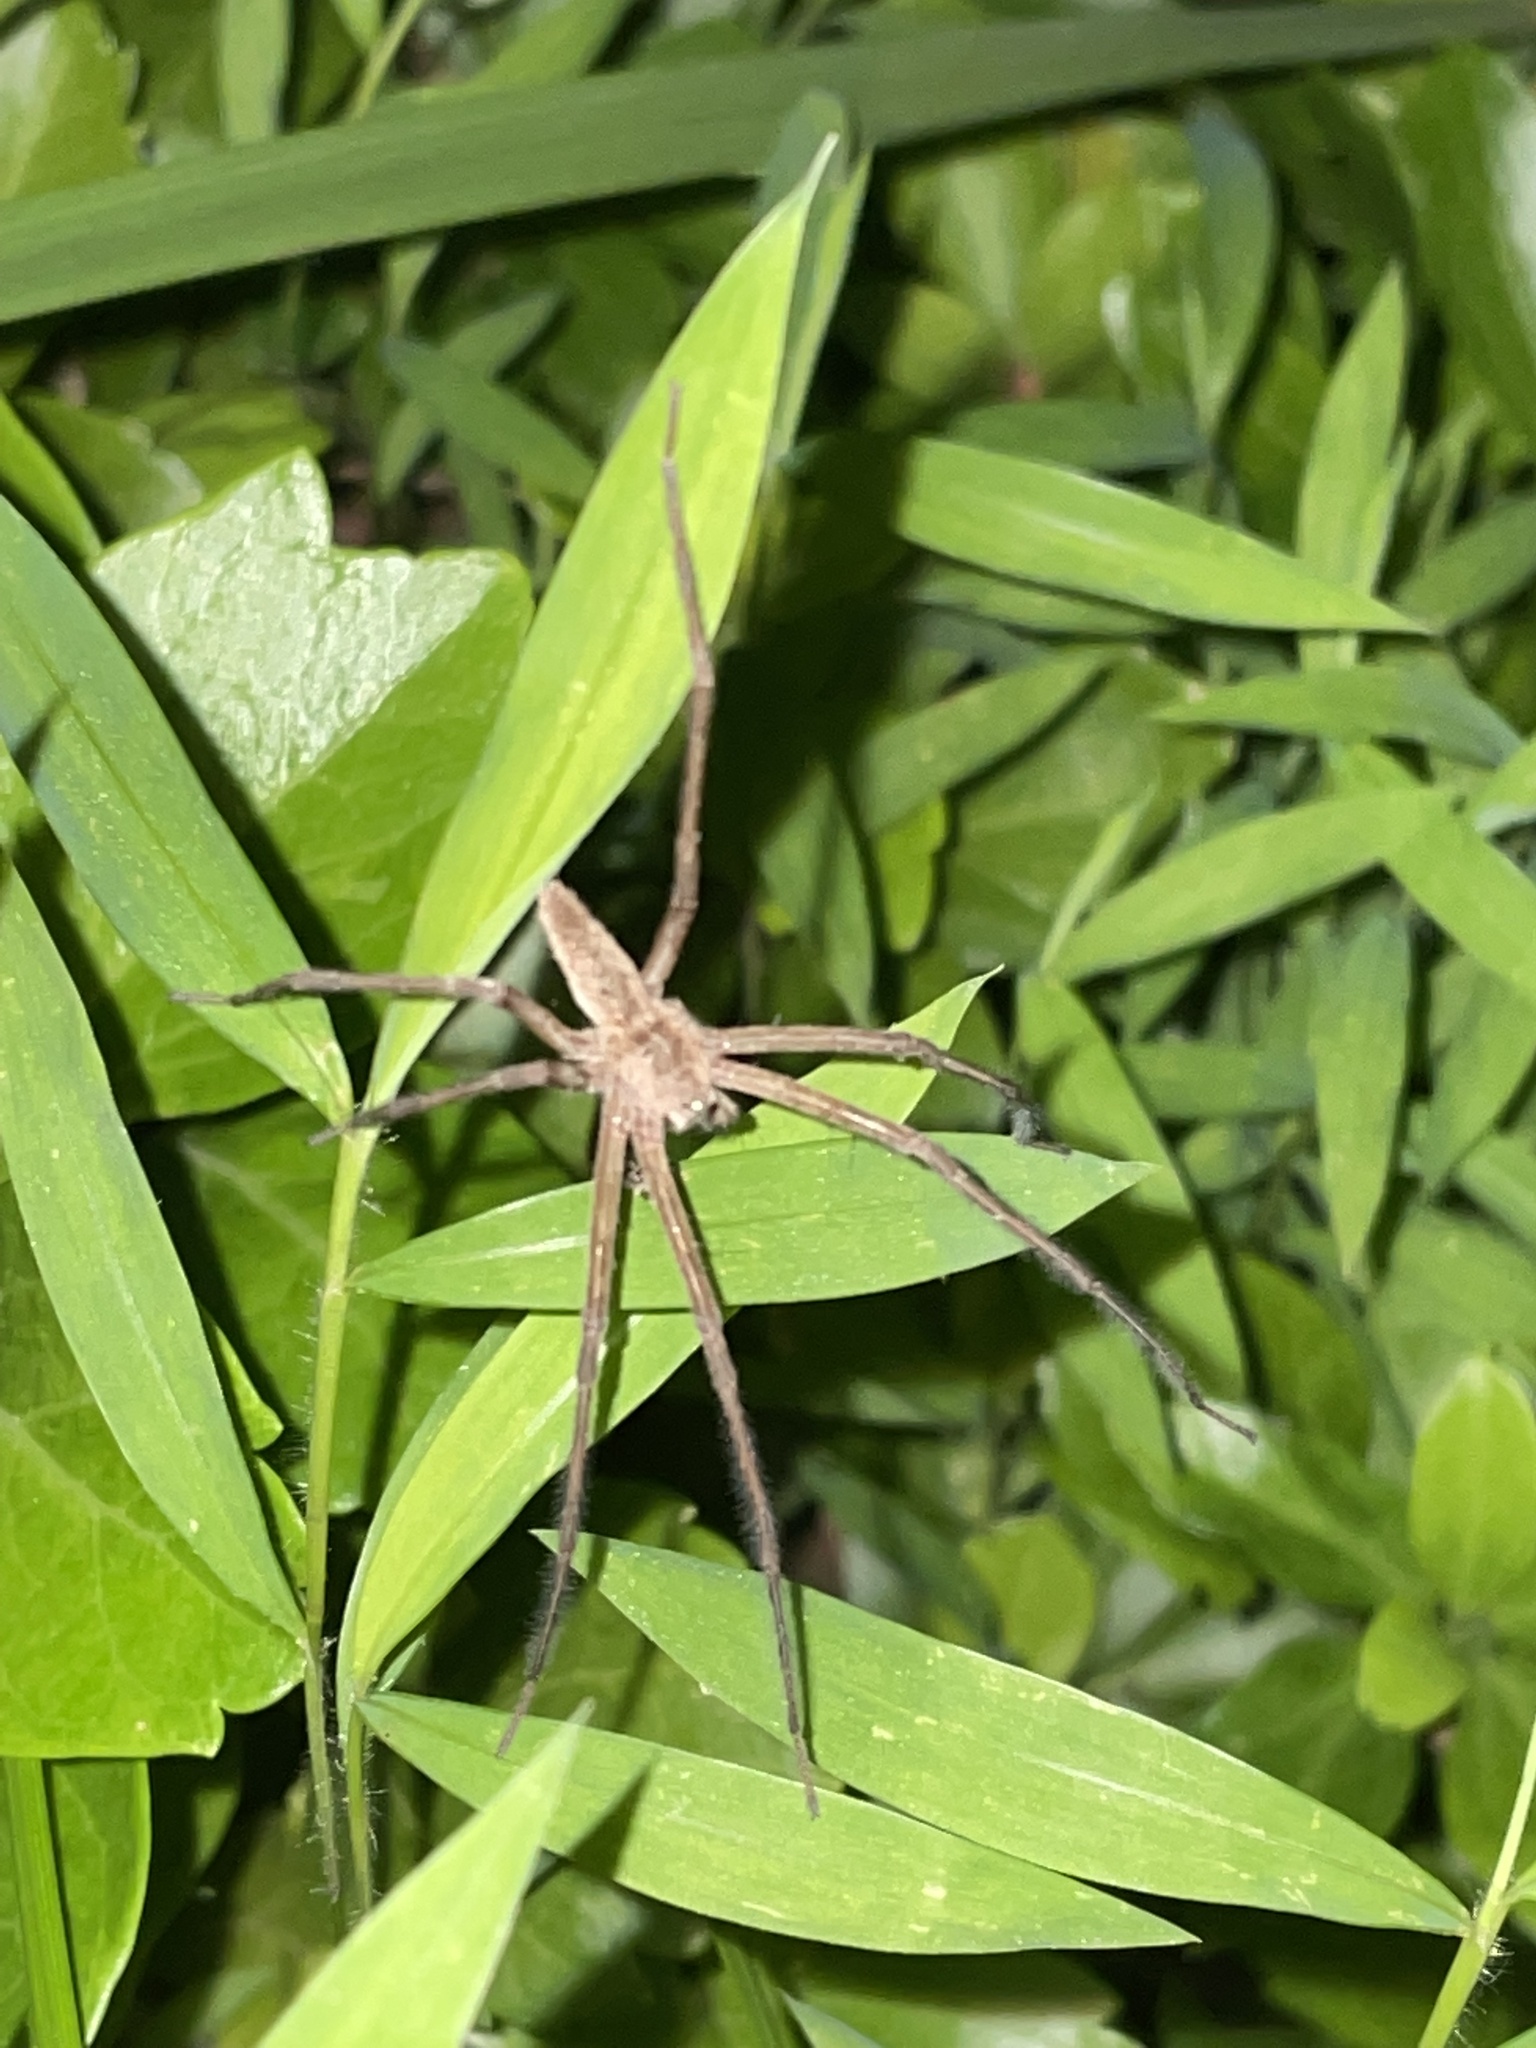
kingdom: Animalia
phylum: Arthropoda
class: Arachnida
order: Araneae
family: Pisauridae
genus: Pisaurina
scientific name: Pisaurina mira
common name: American nursery web spider
